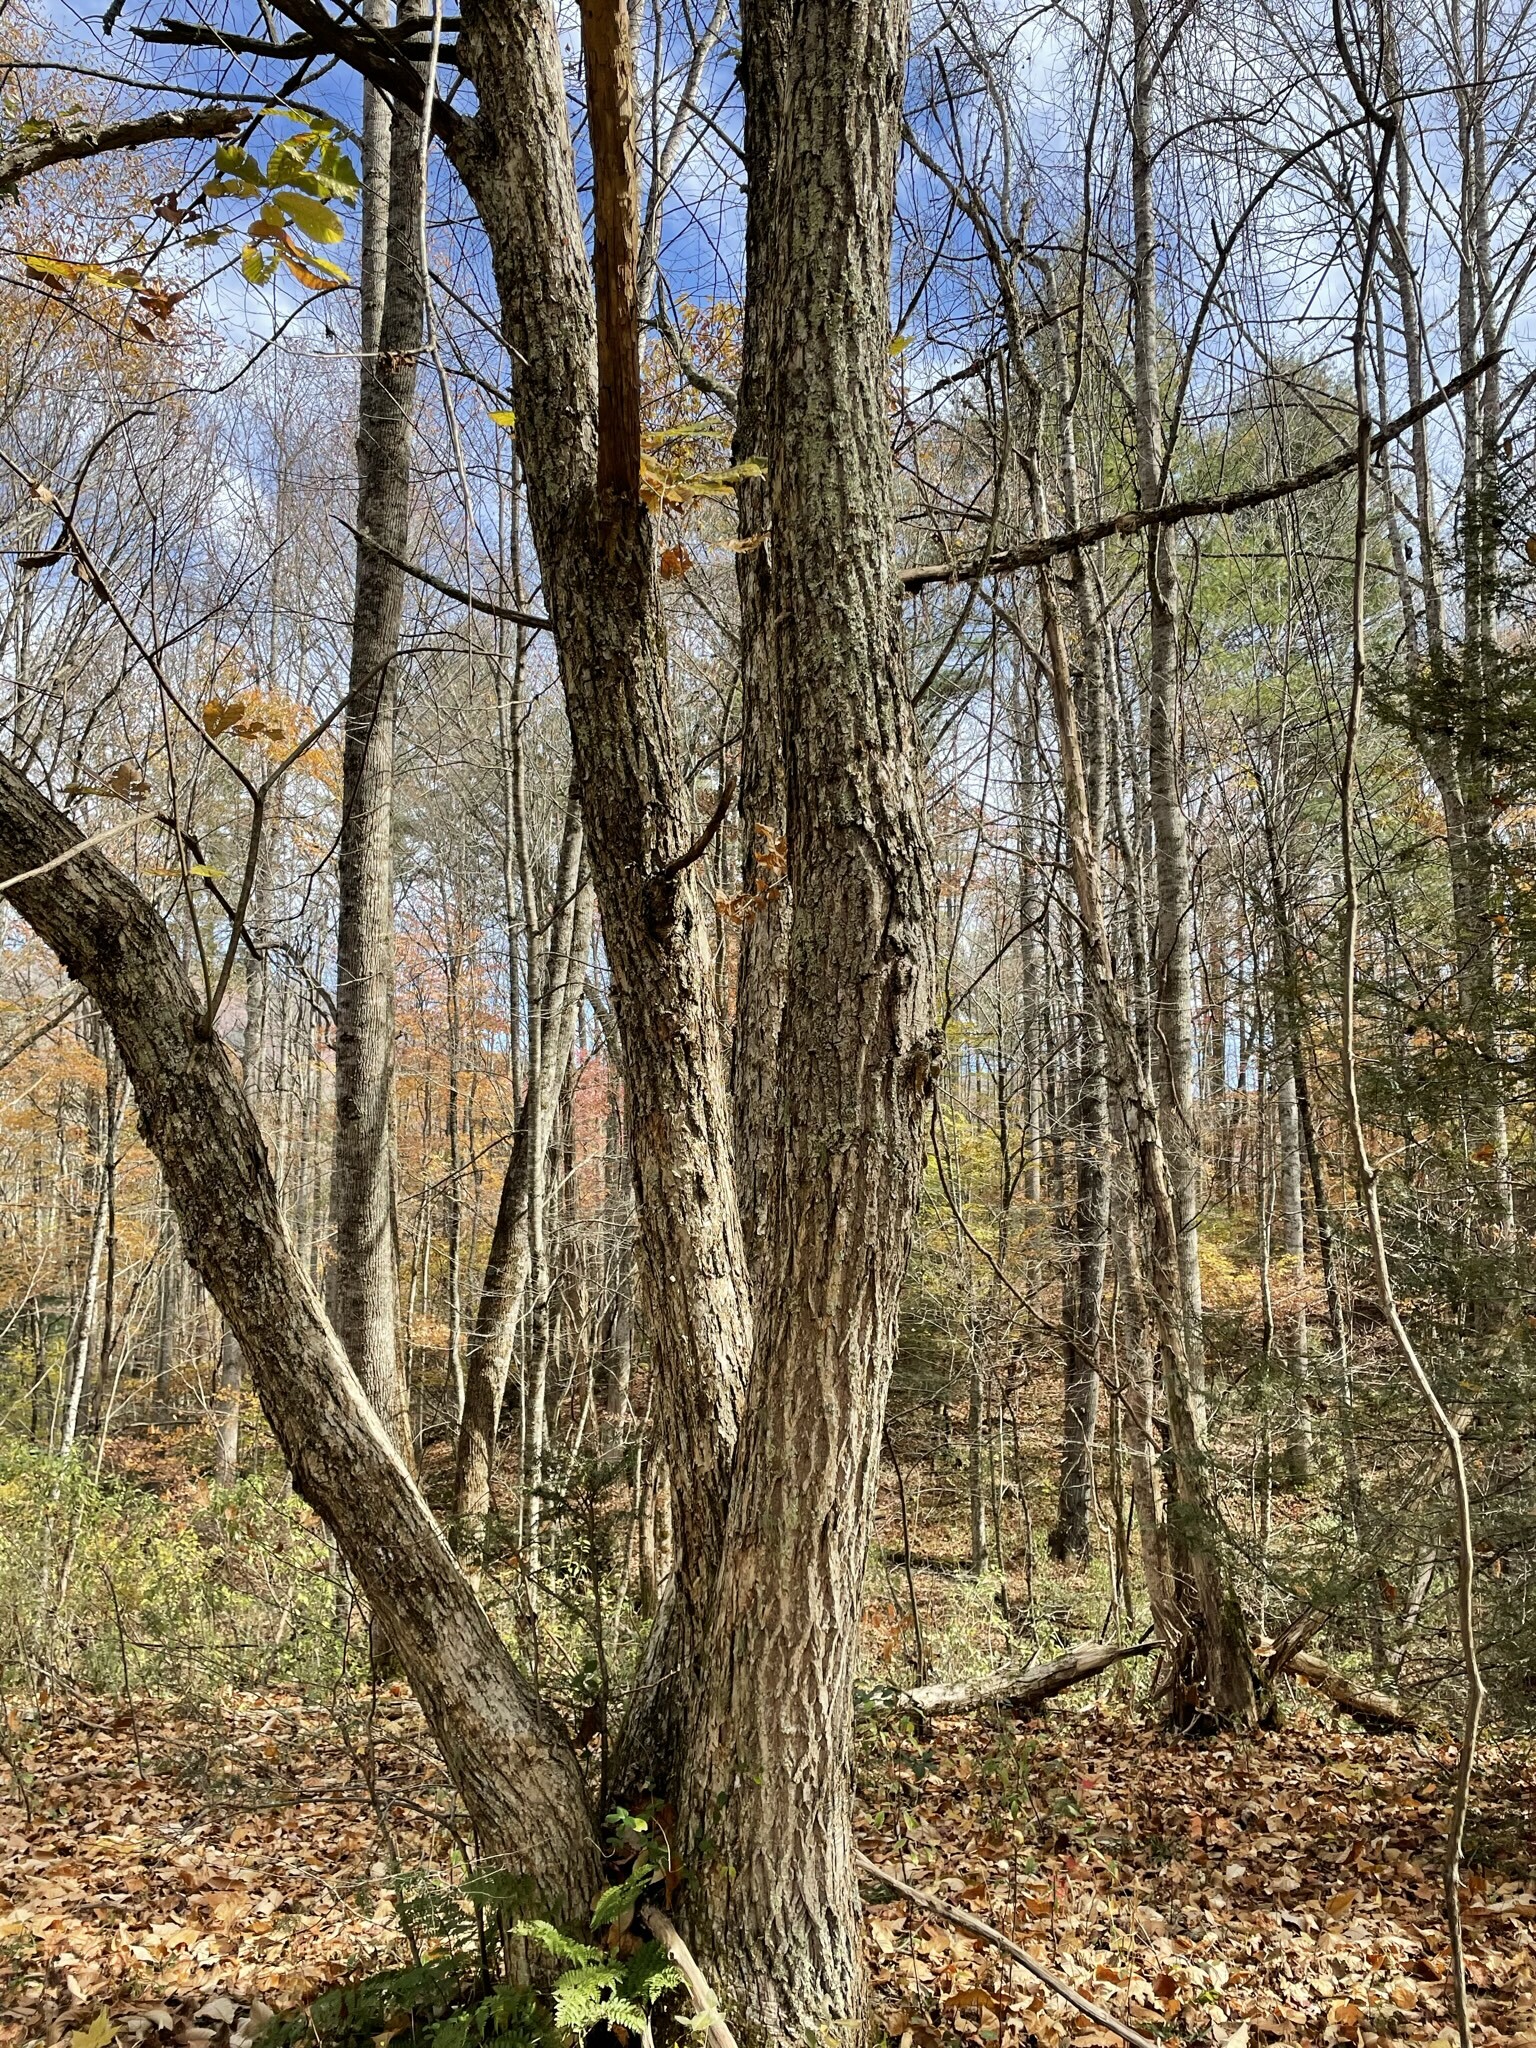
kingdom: Plantae
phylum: Tracheophyta
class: Magnoliopsida
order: Fagales
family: Fagaceae
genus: Castanea
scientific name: Castanea mollissima
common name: Chinese chestnut
